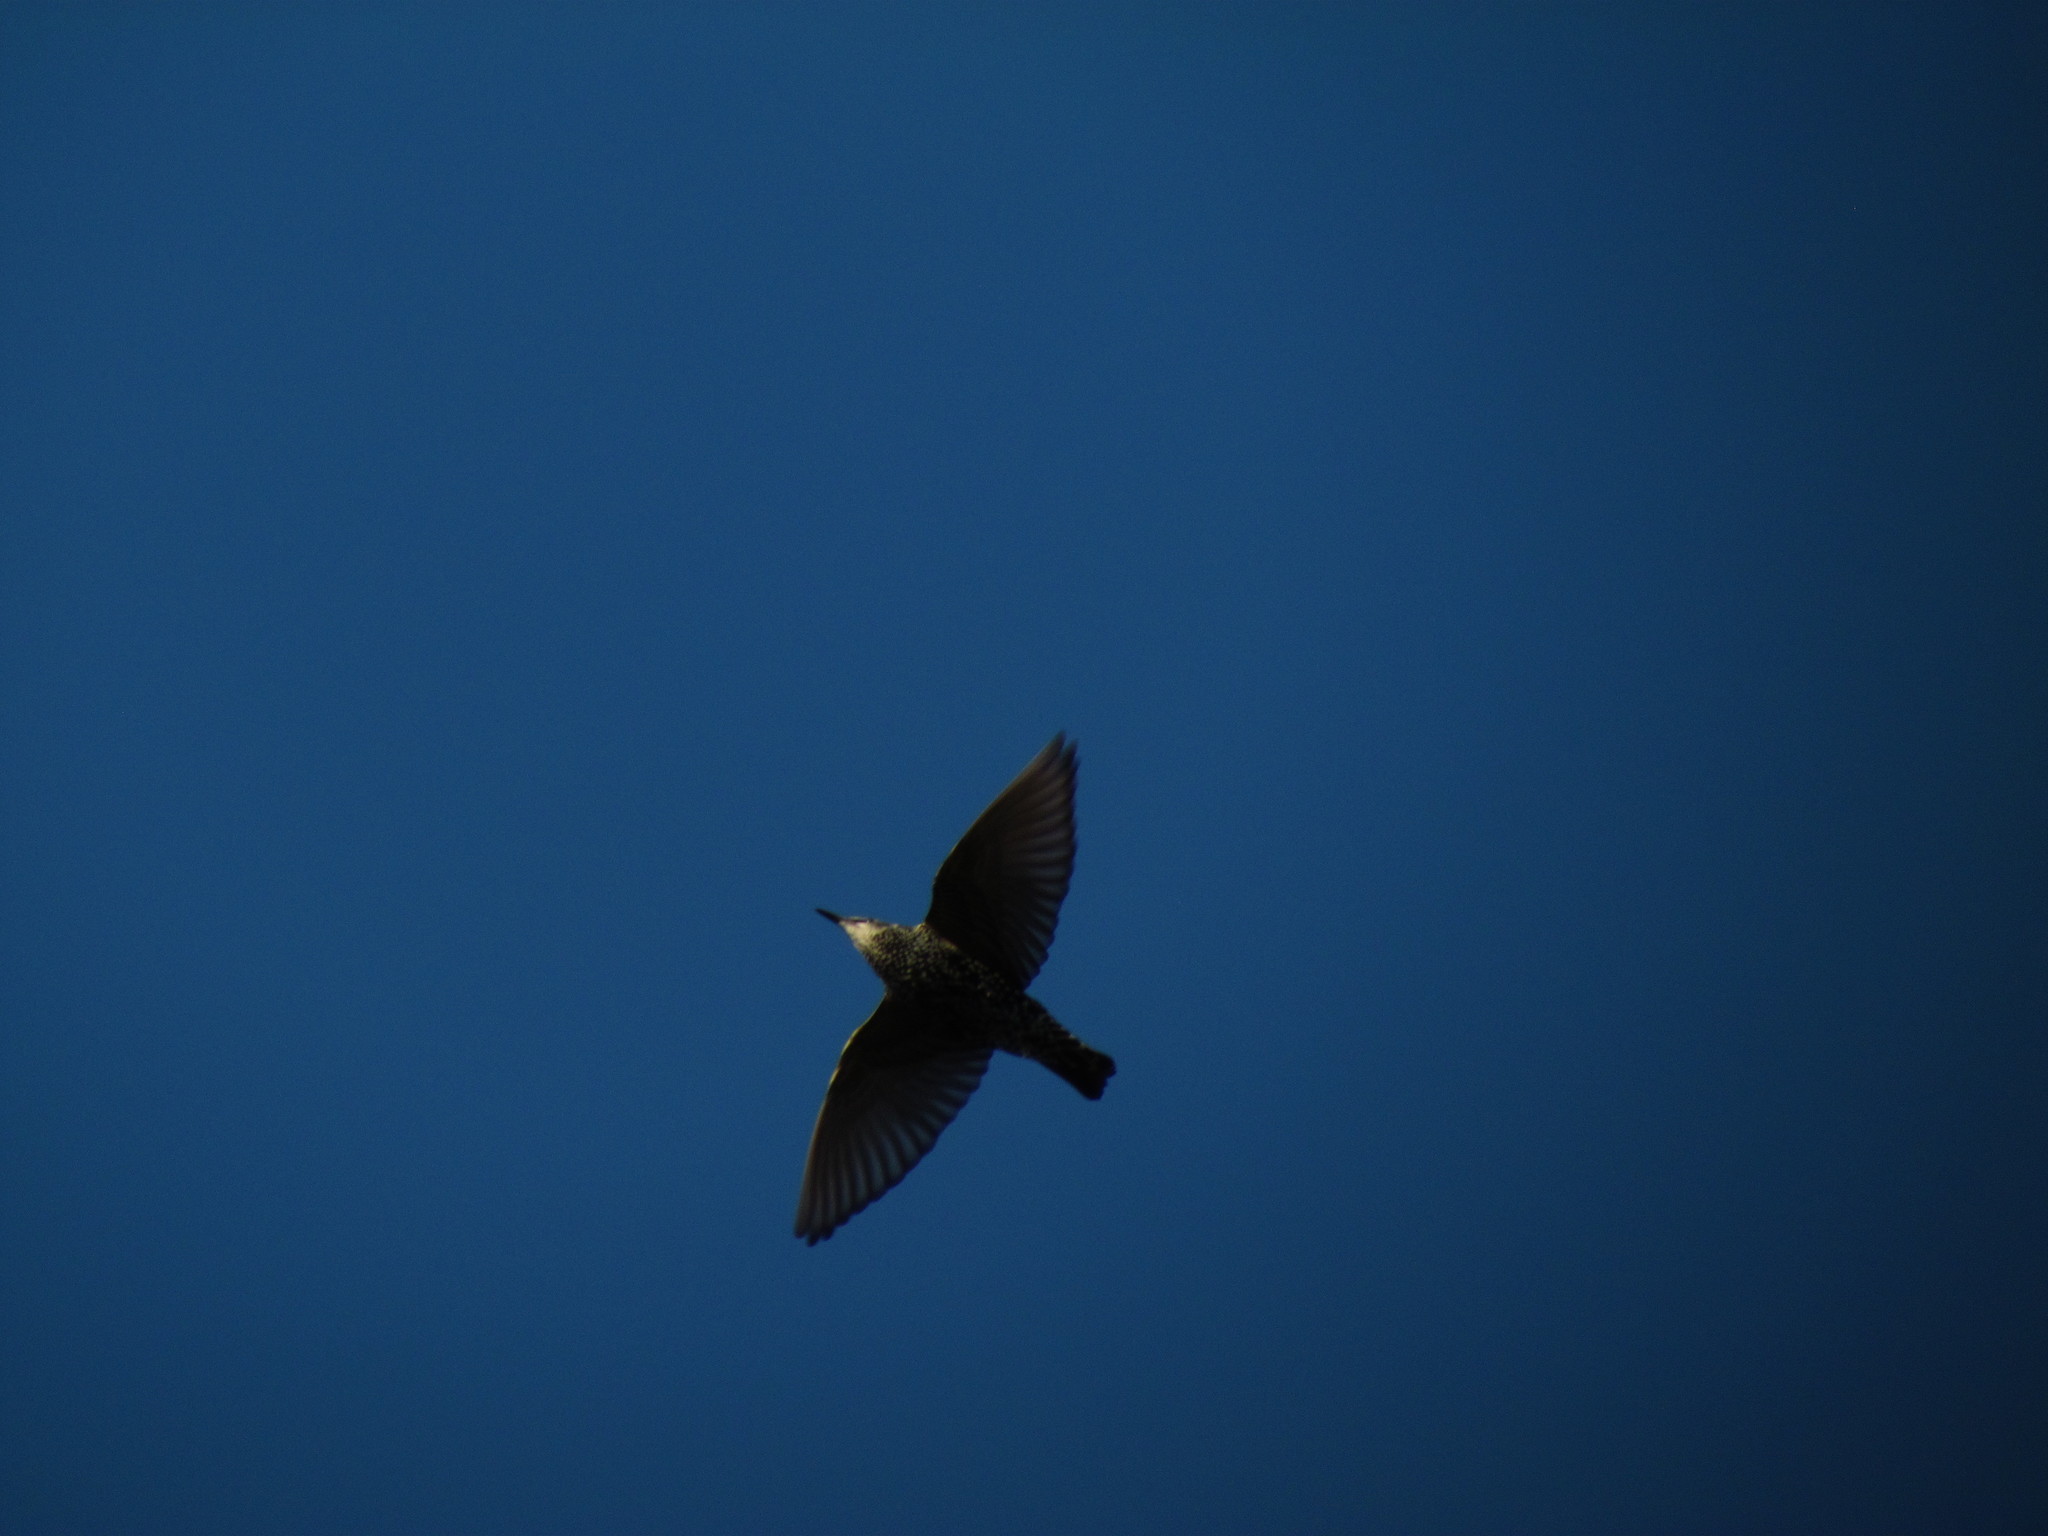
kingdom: Animalia
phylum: Chordata
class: Aves
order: Passeriformes
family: Sturnidae
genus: Sturnus
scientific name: Sturnus vulgaris
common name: Common starling
